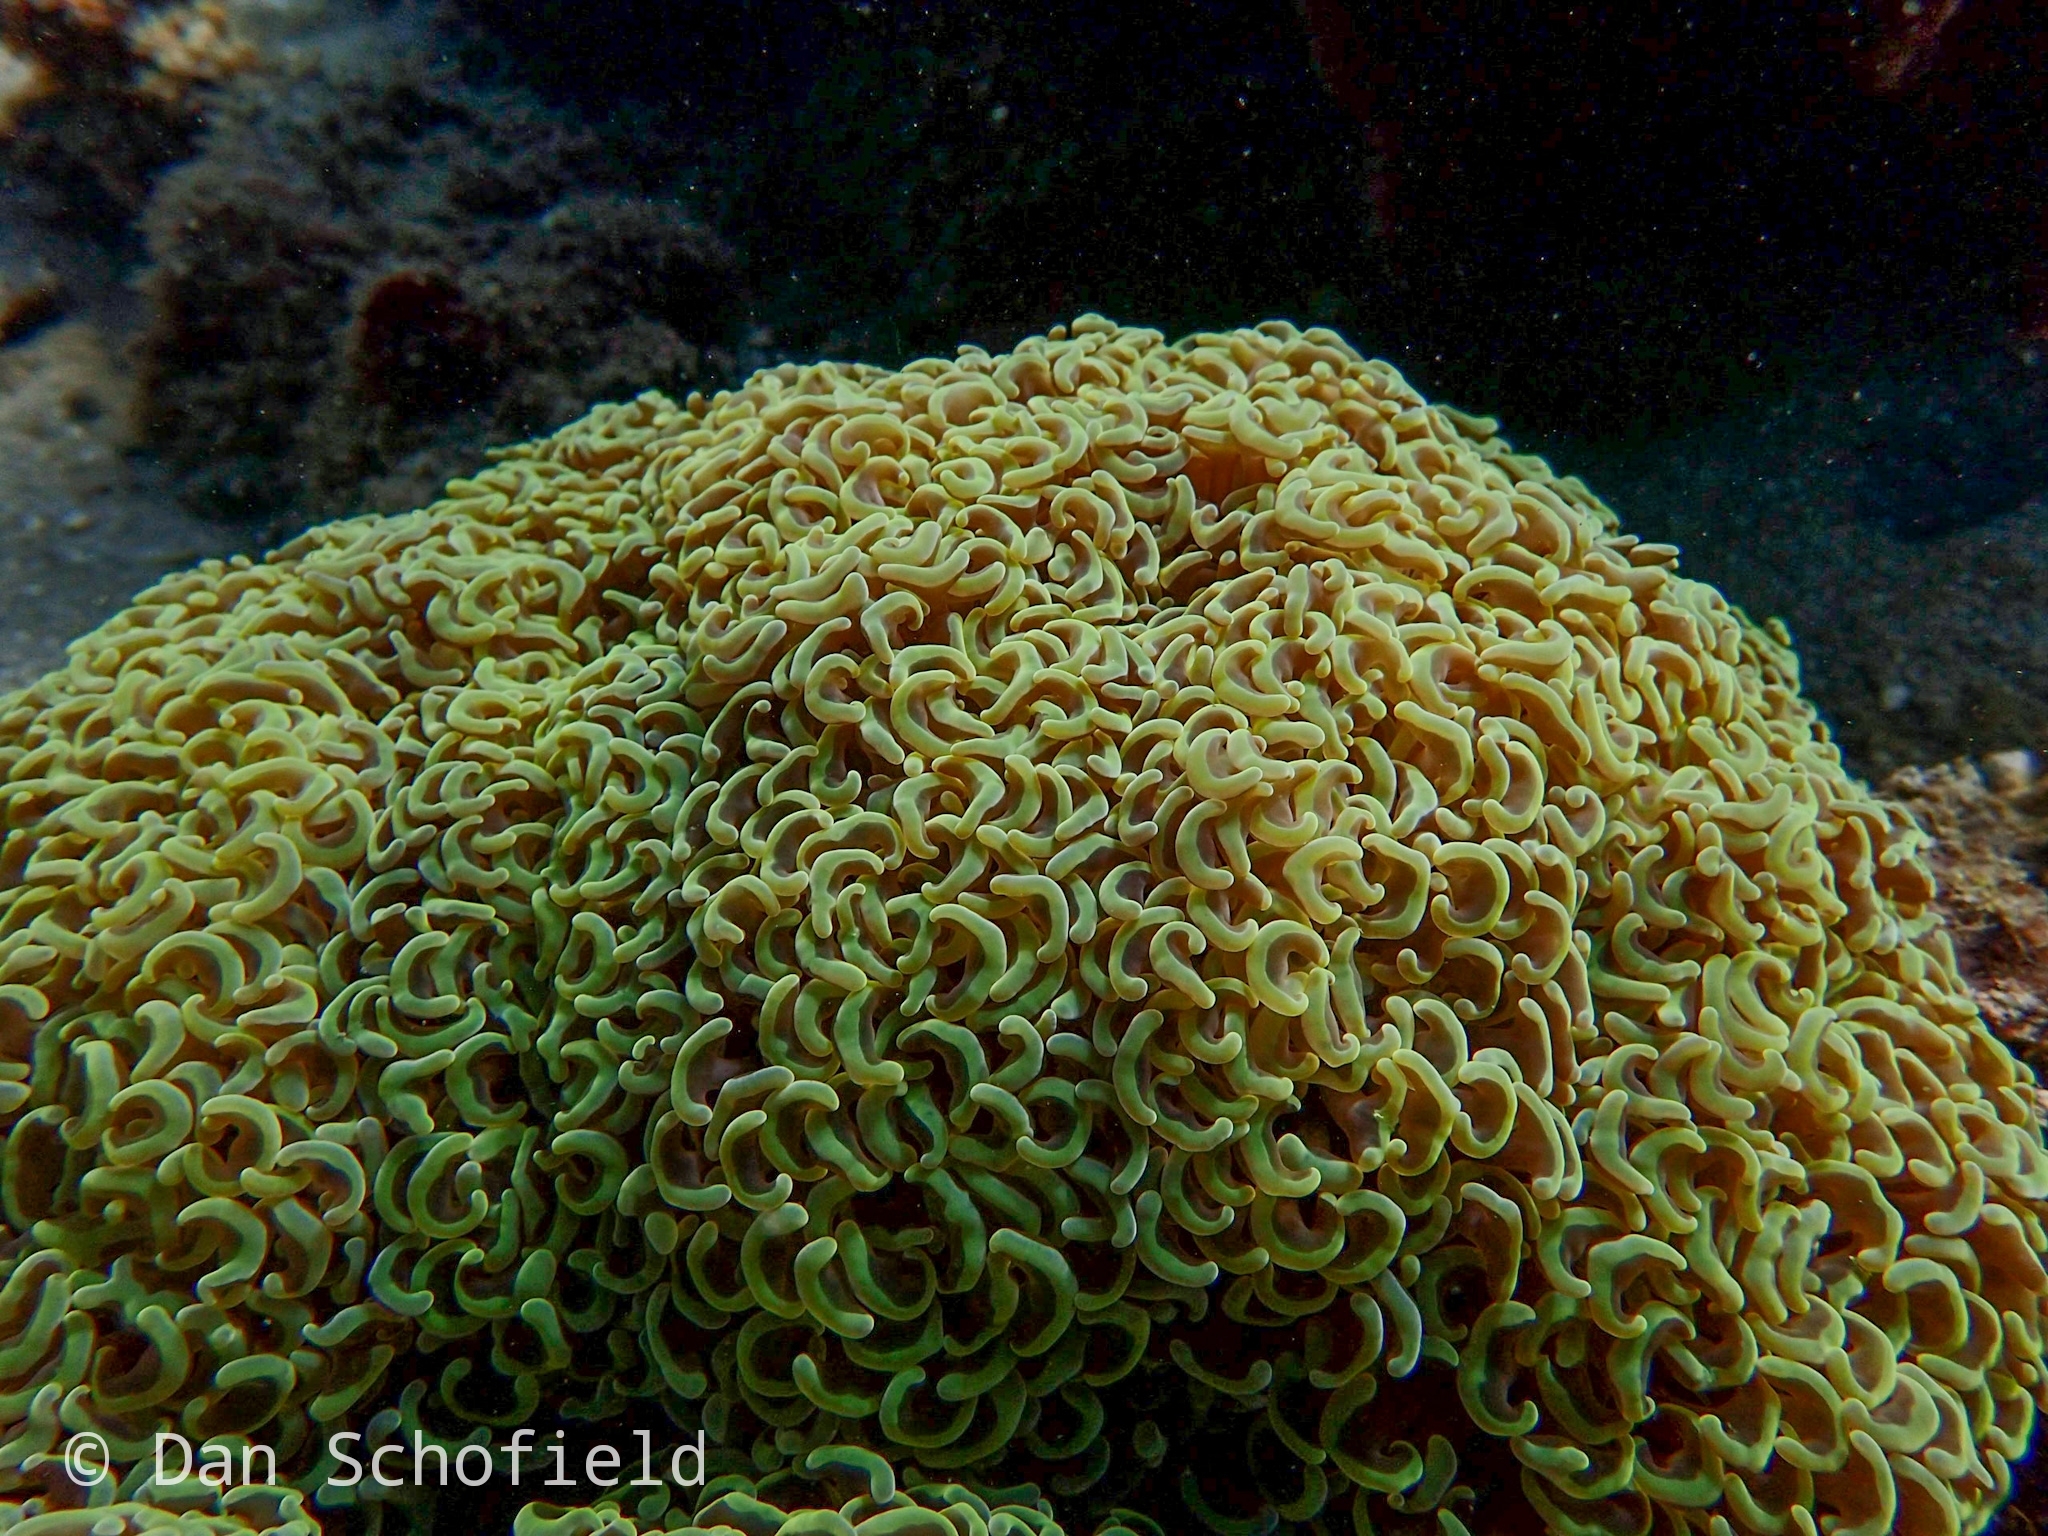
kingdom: Animalia
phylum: Cnidaria
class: Anthozoa
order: Scleractinia
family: Euphylliidae
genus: Fimbriaphyllia
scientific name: Fimbriaphyllia ancora
